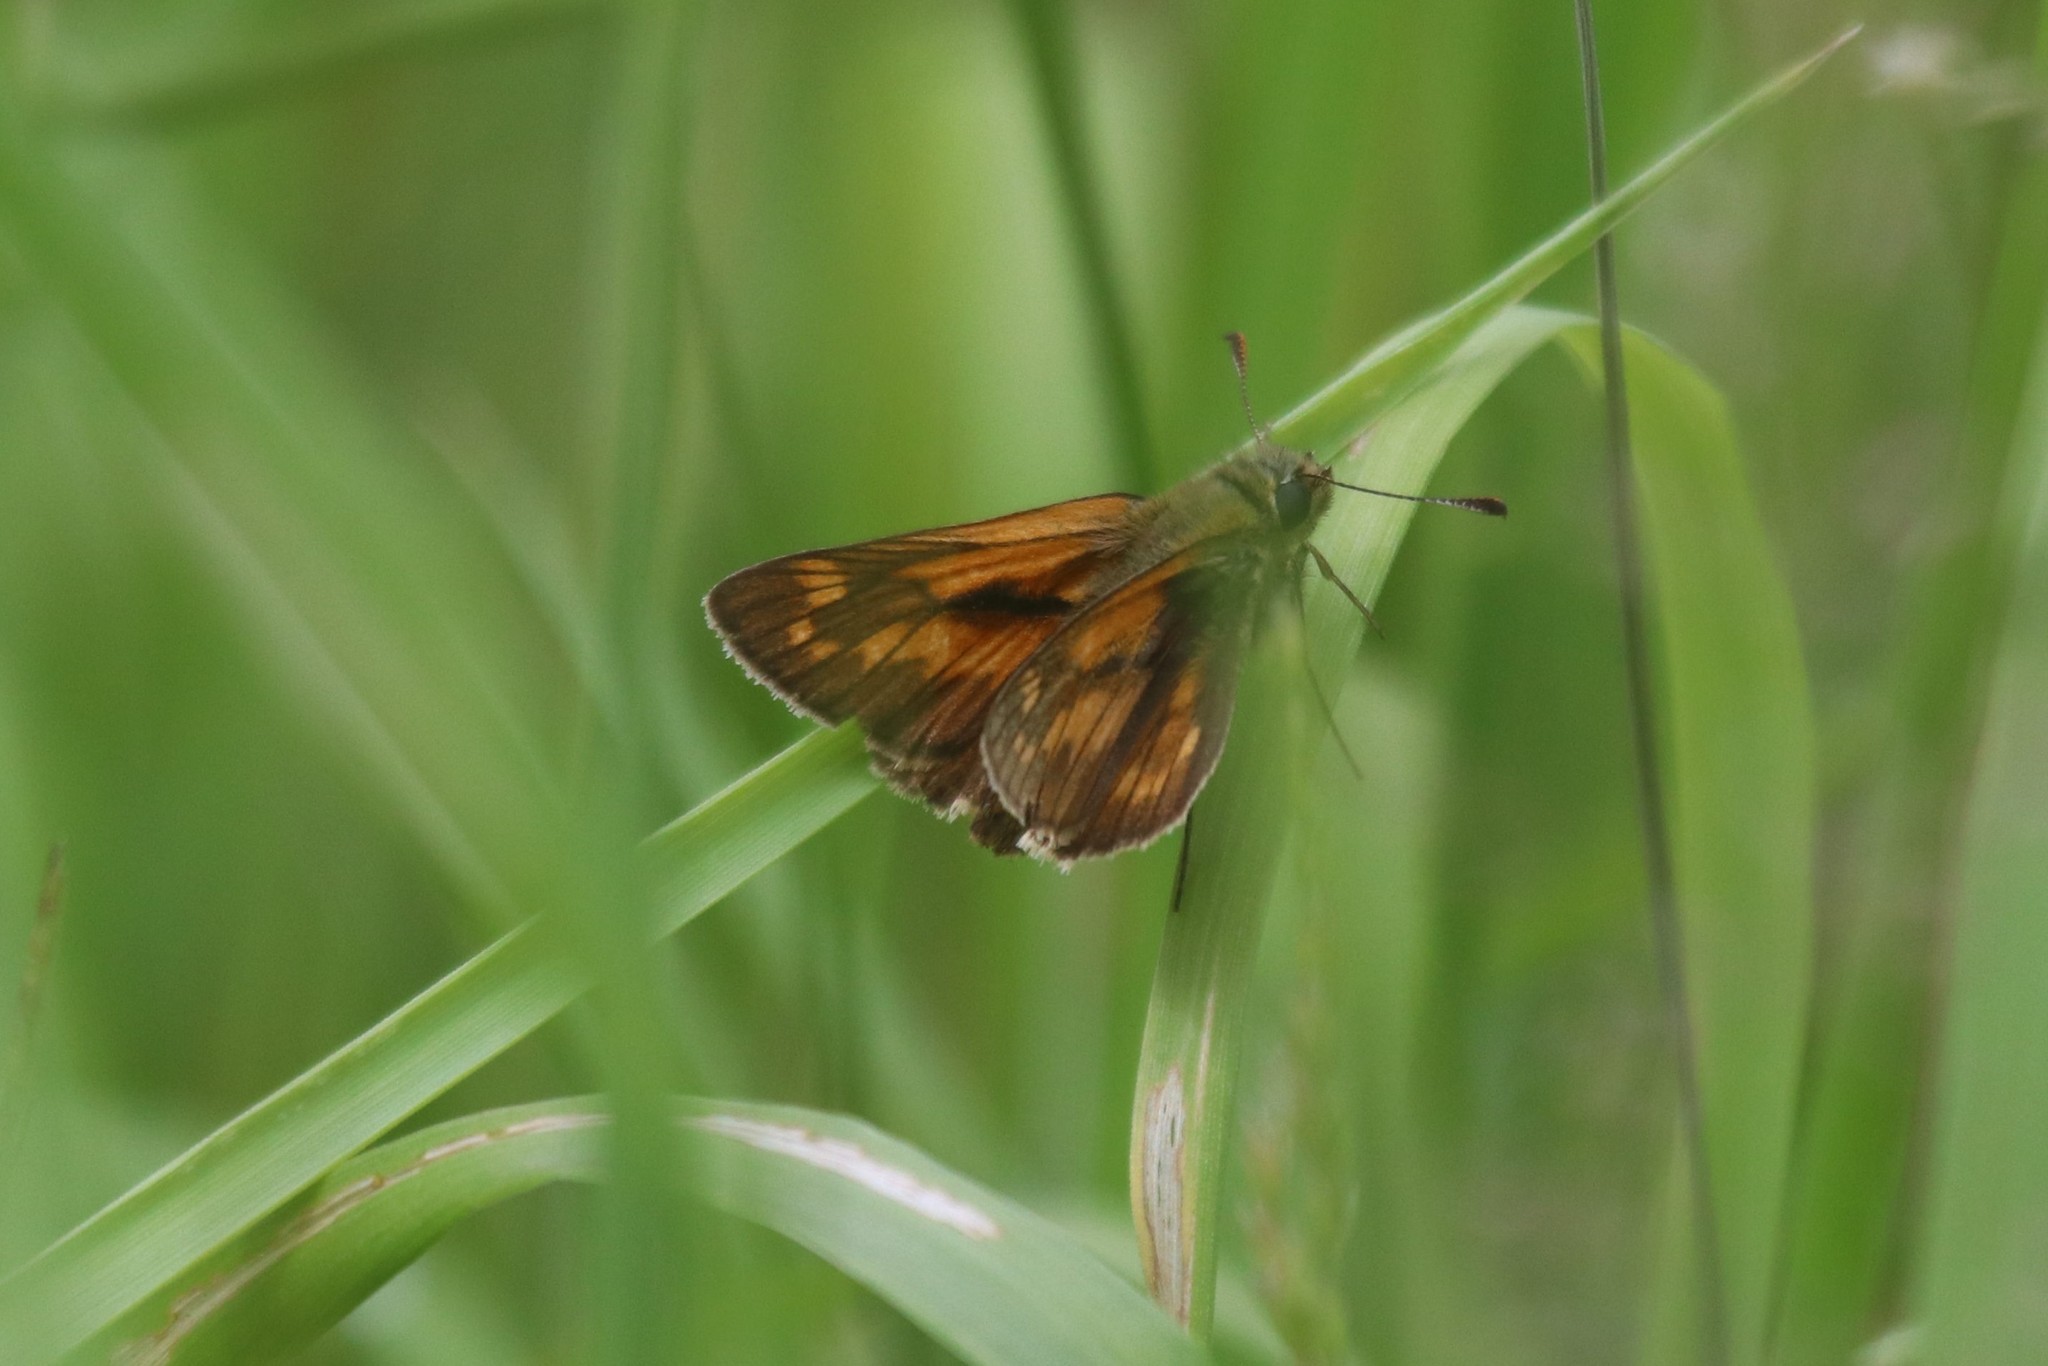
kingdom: Animalia
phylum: Arthropoda
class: Insecta
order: Lepidoptera
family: Hesperiidae
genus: Ochlodes
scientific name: Ochlodes venata
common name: Large skipper
